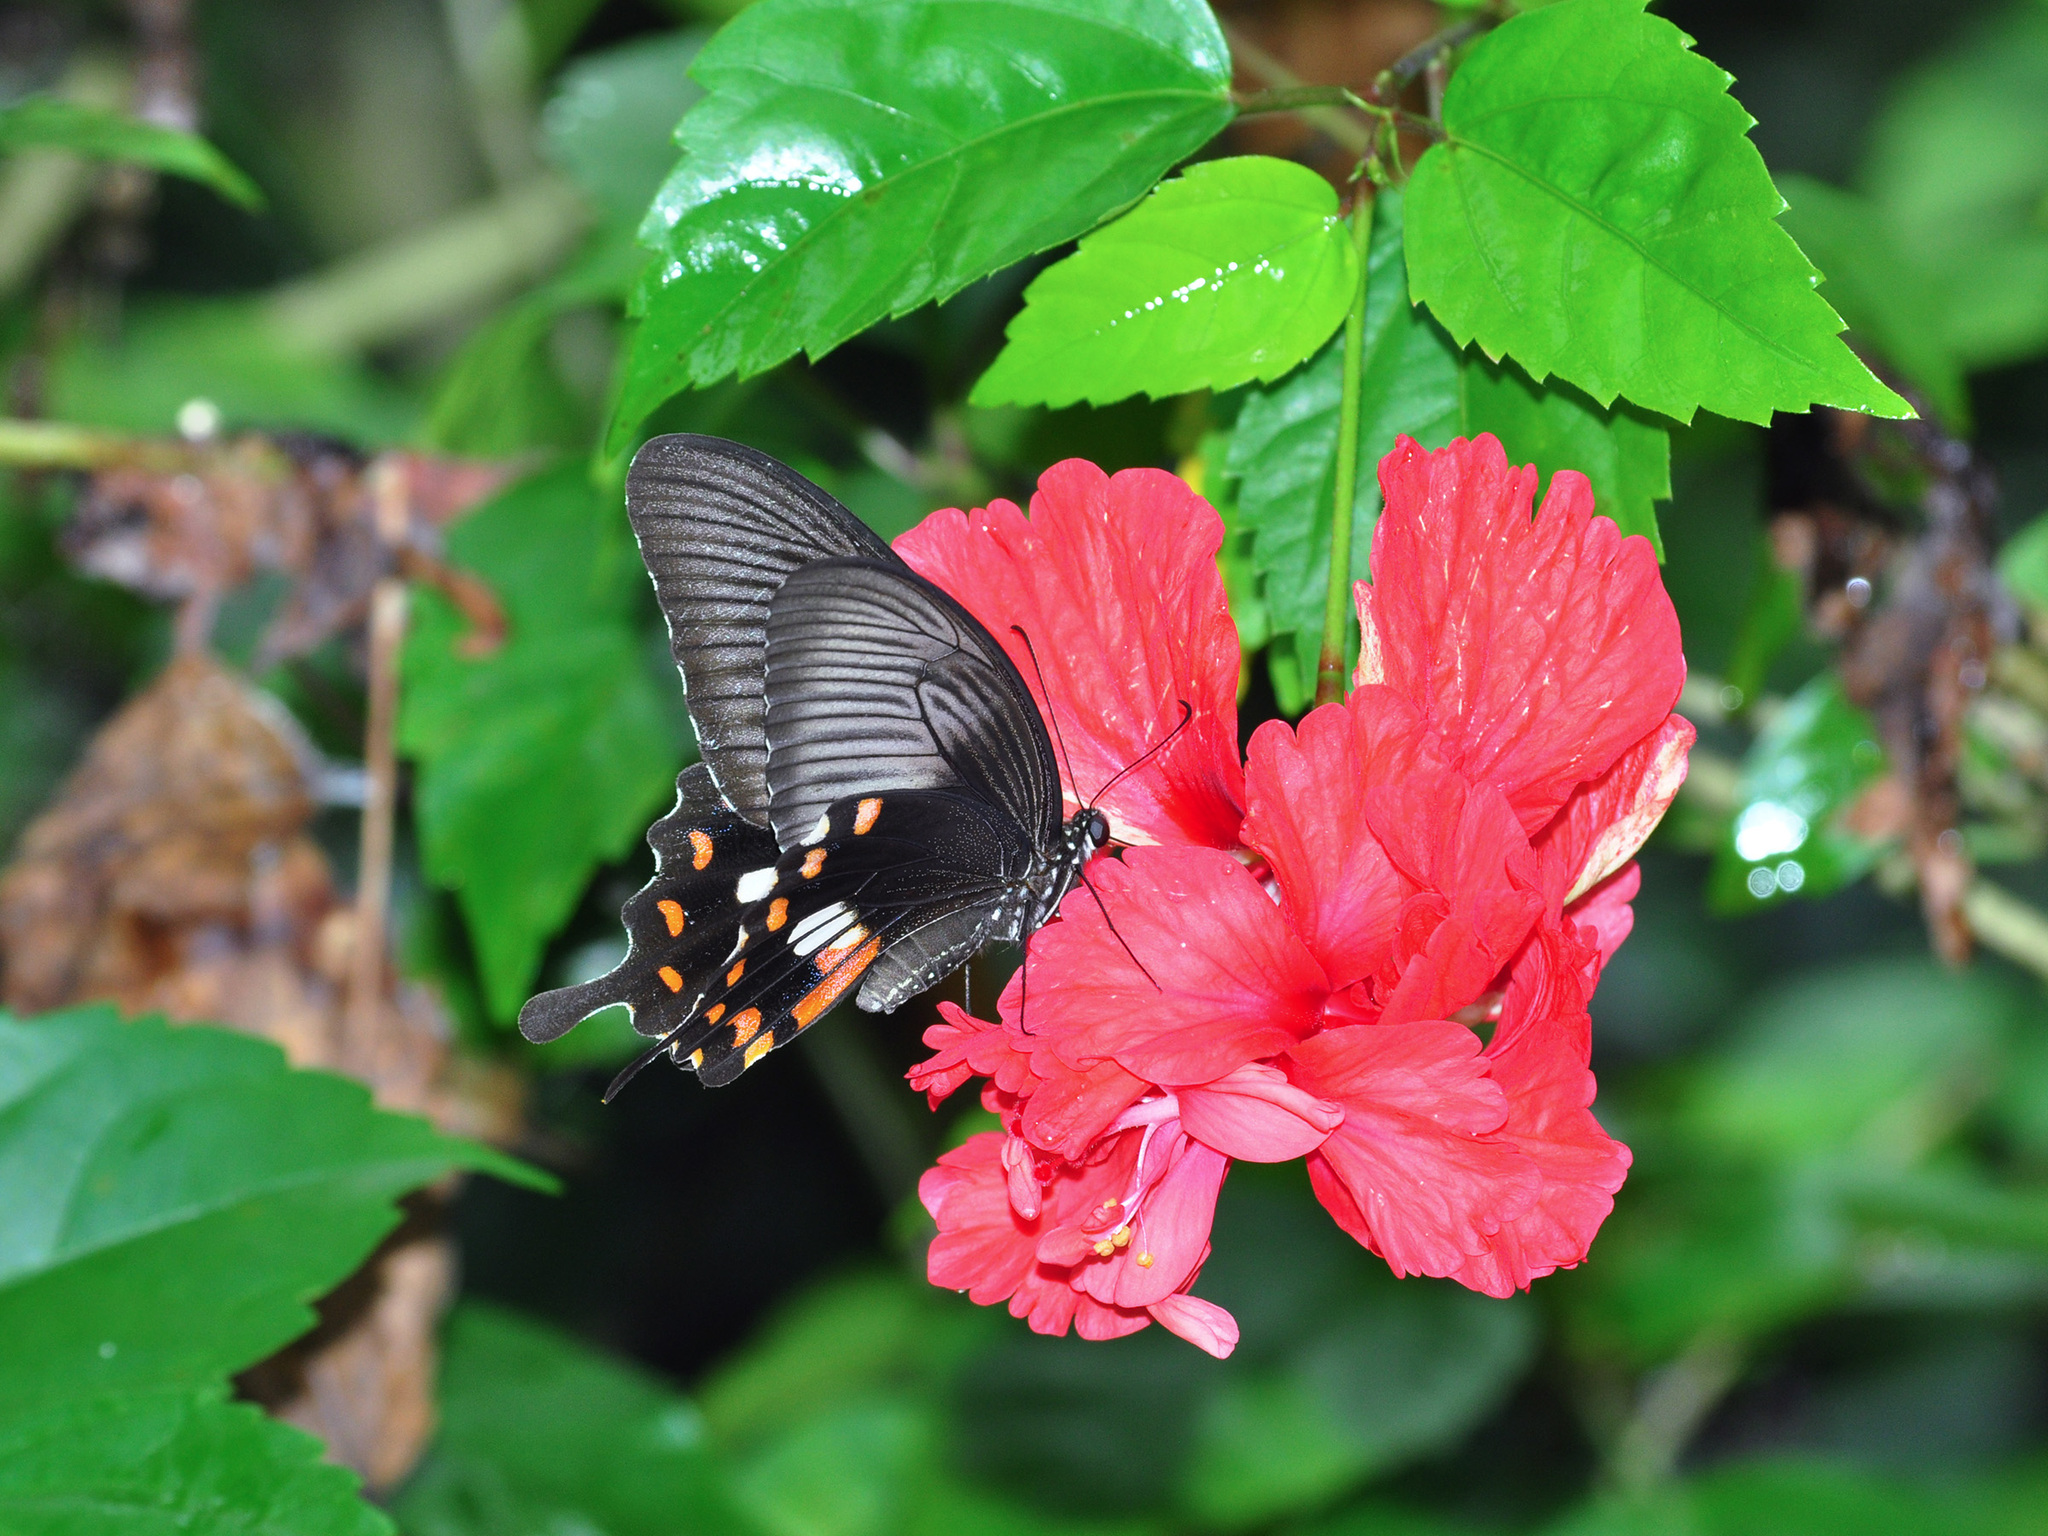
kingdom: Animalia
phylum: Arthropoda
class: Insecta
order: Lepidoptera
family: Papilionidae
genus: Papilio
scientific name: Papilio polytes
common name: Common mormon
